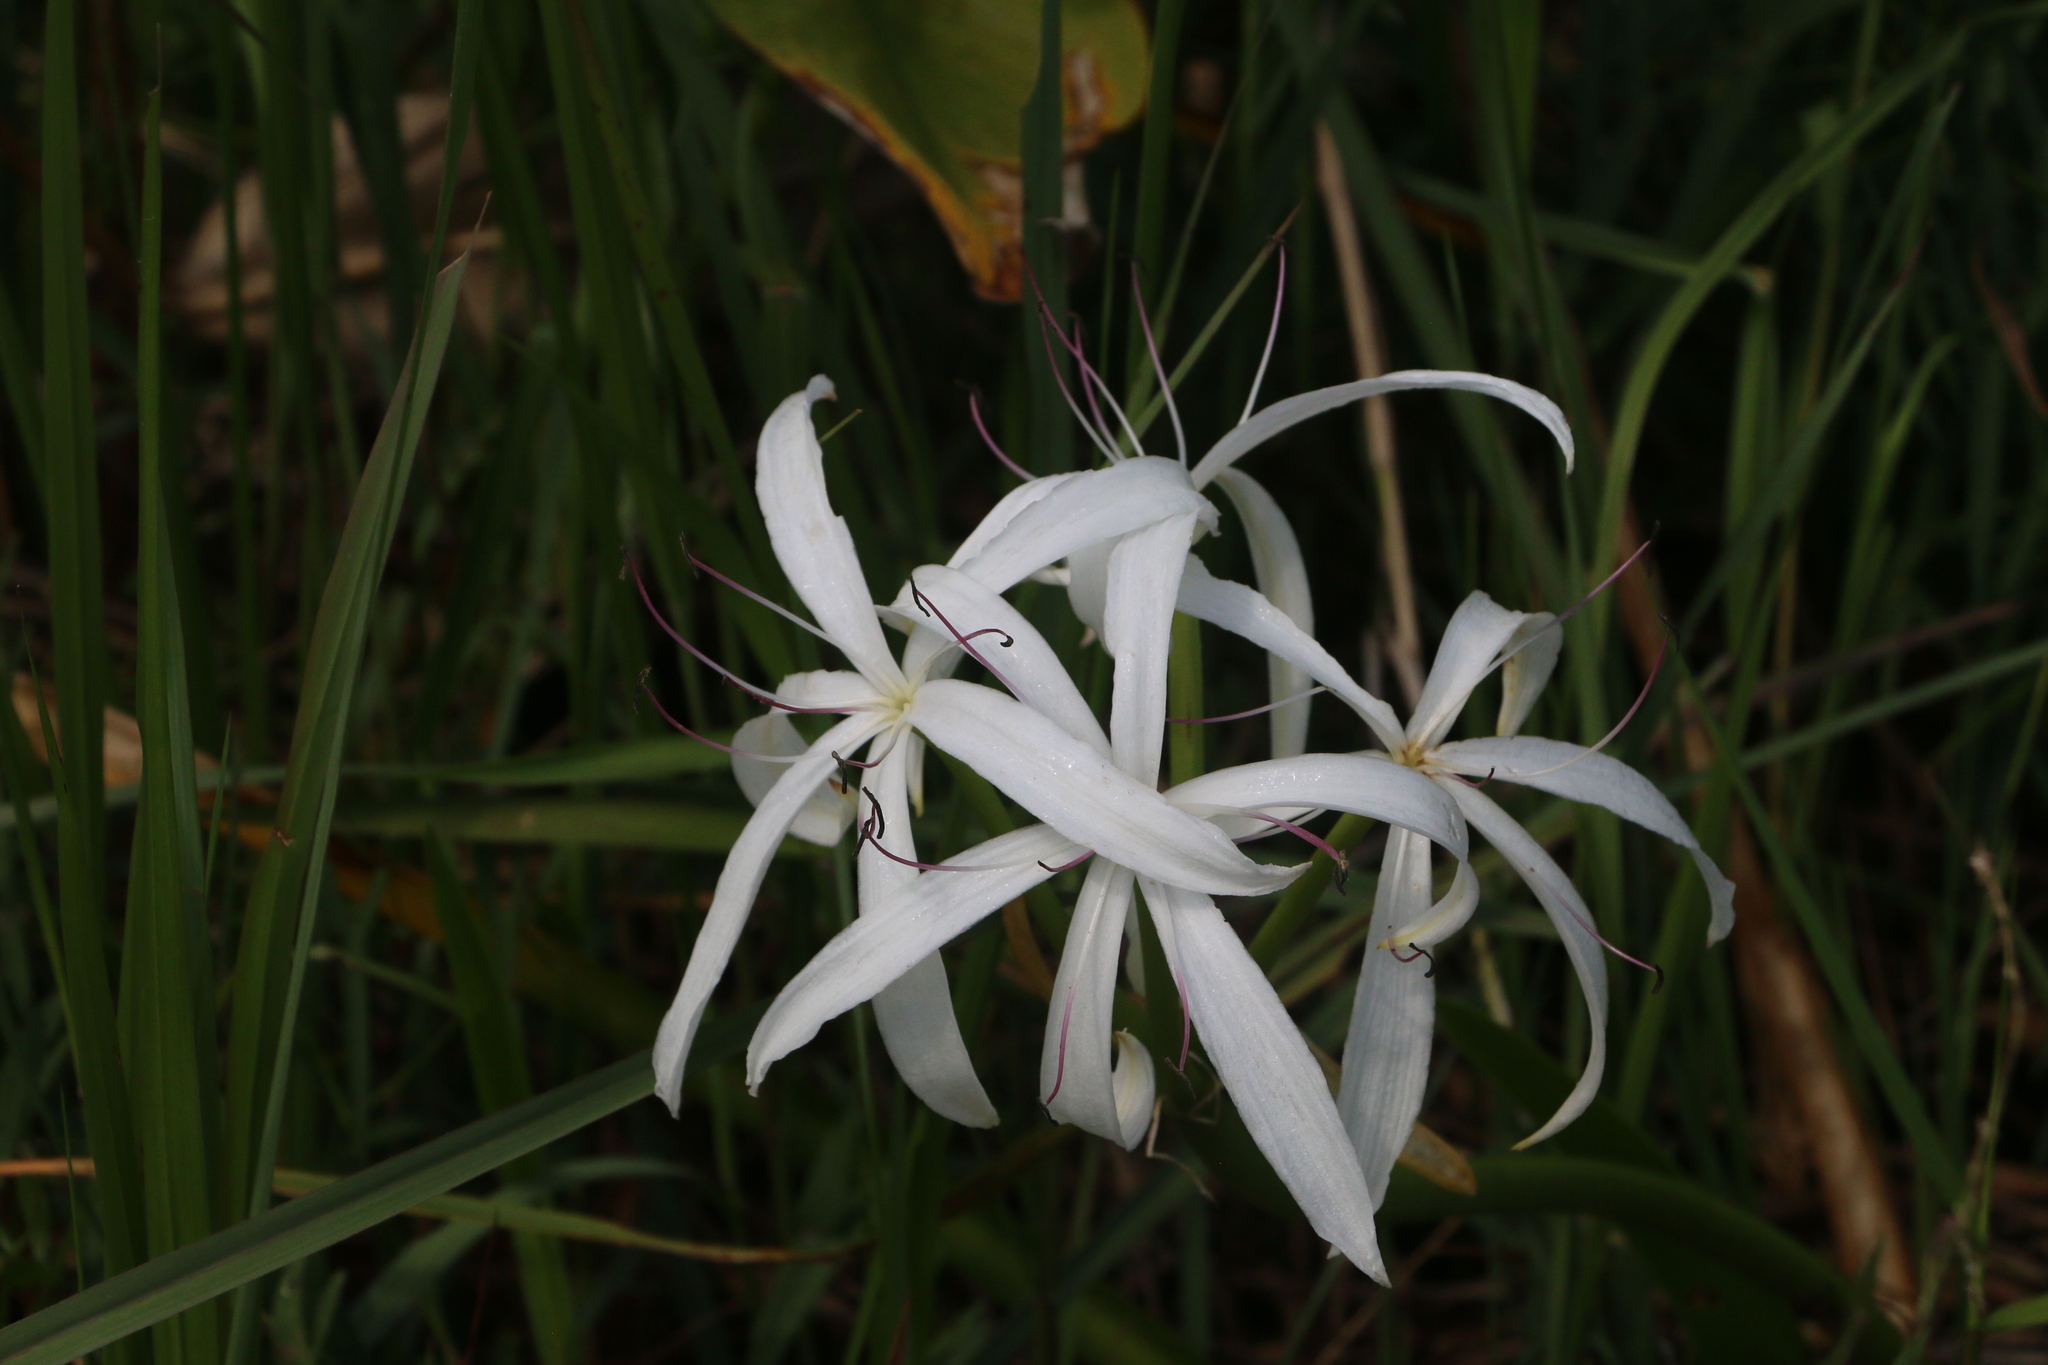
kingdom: Plantae
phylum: Tracheophyta
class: Liliopsida
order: Asparagales
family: Amaryllidaceae
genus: Crinum
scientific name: Crinum americanum
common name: Florida swamp-lily
